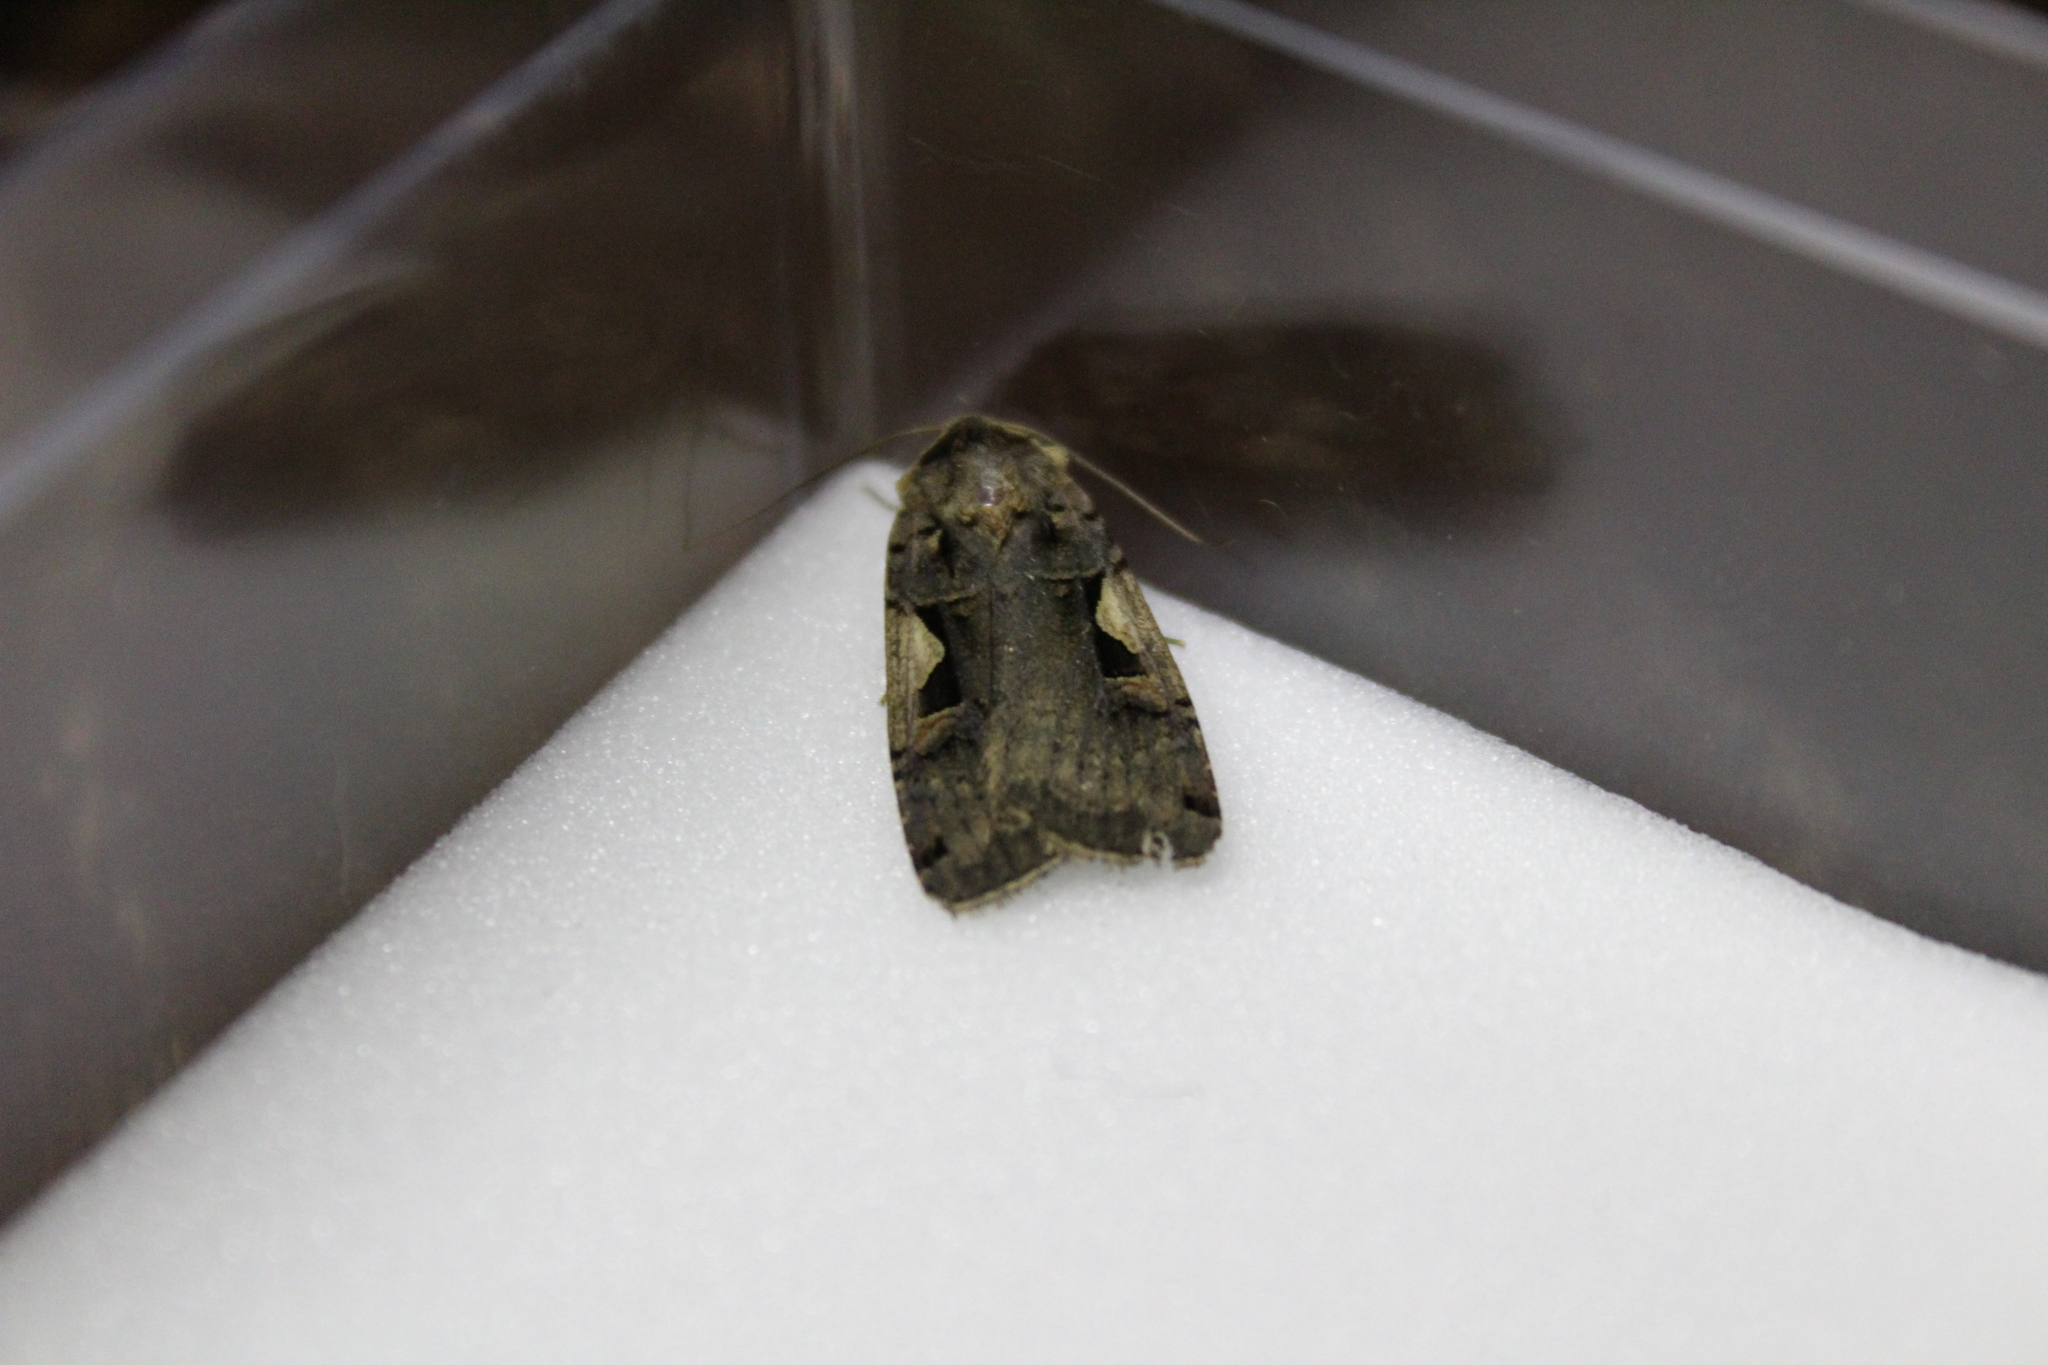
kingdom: Animalia
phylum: Arthropoda
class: Insecta
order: Lepidoptera
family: Noctuidae
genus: Xestia
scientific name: Xestia c-nigrum
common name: Setaceous hebrew character
